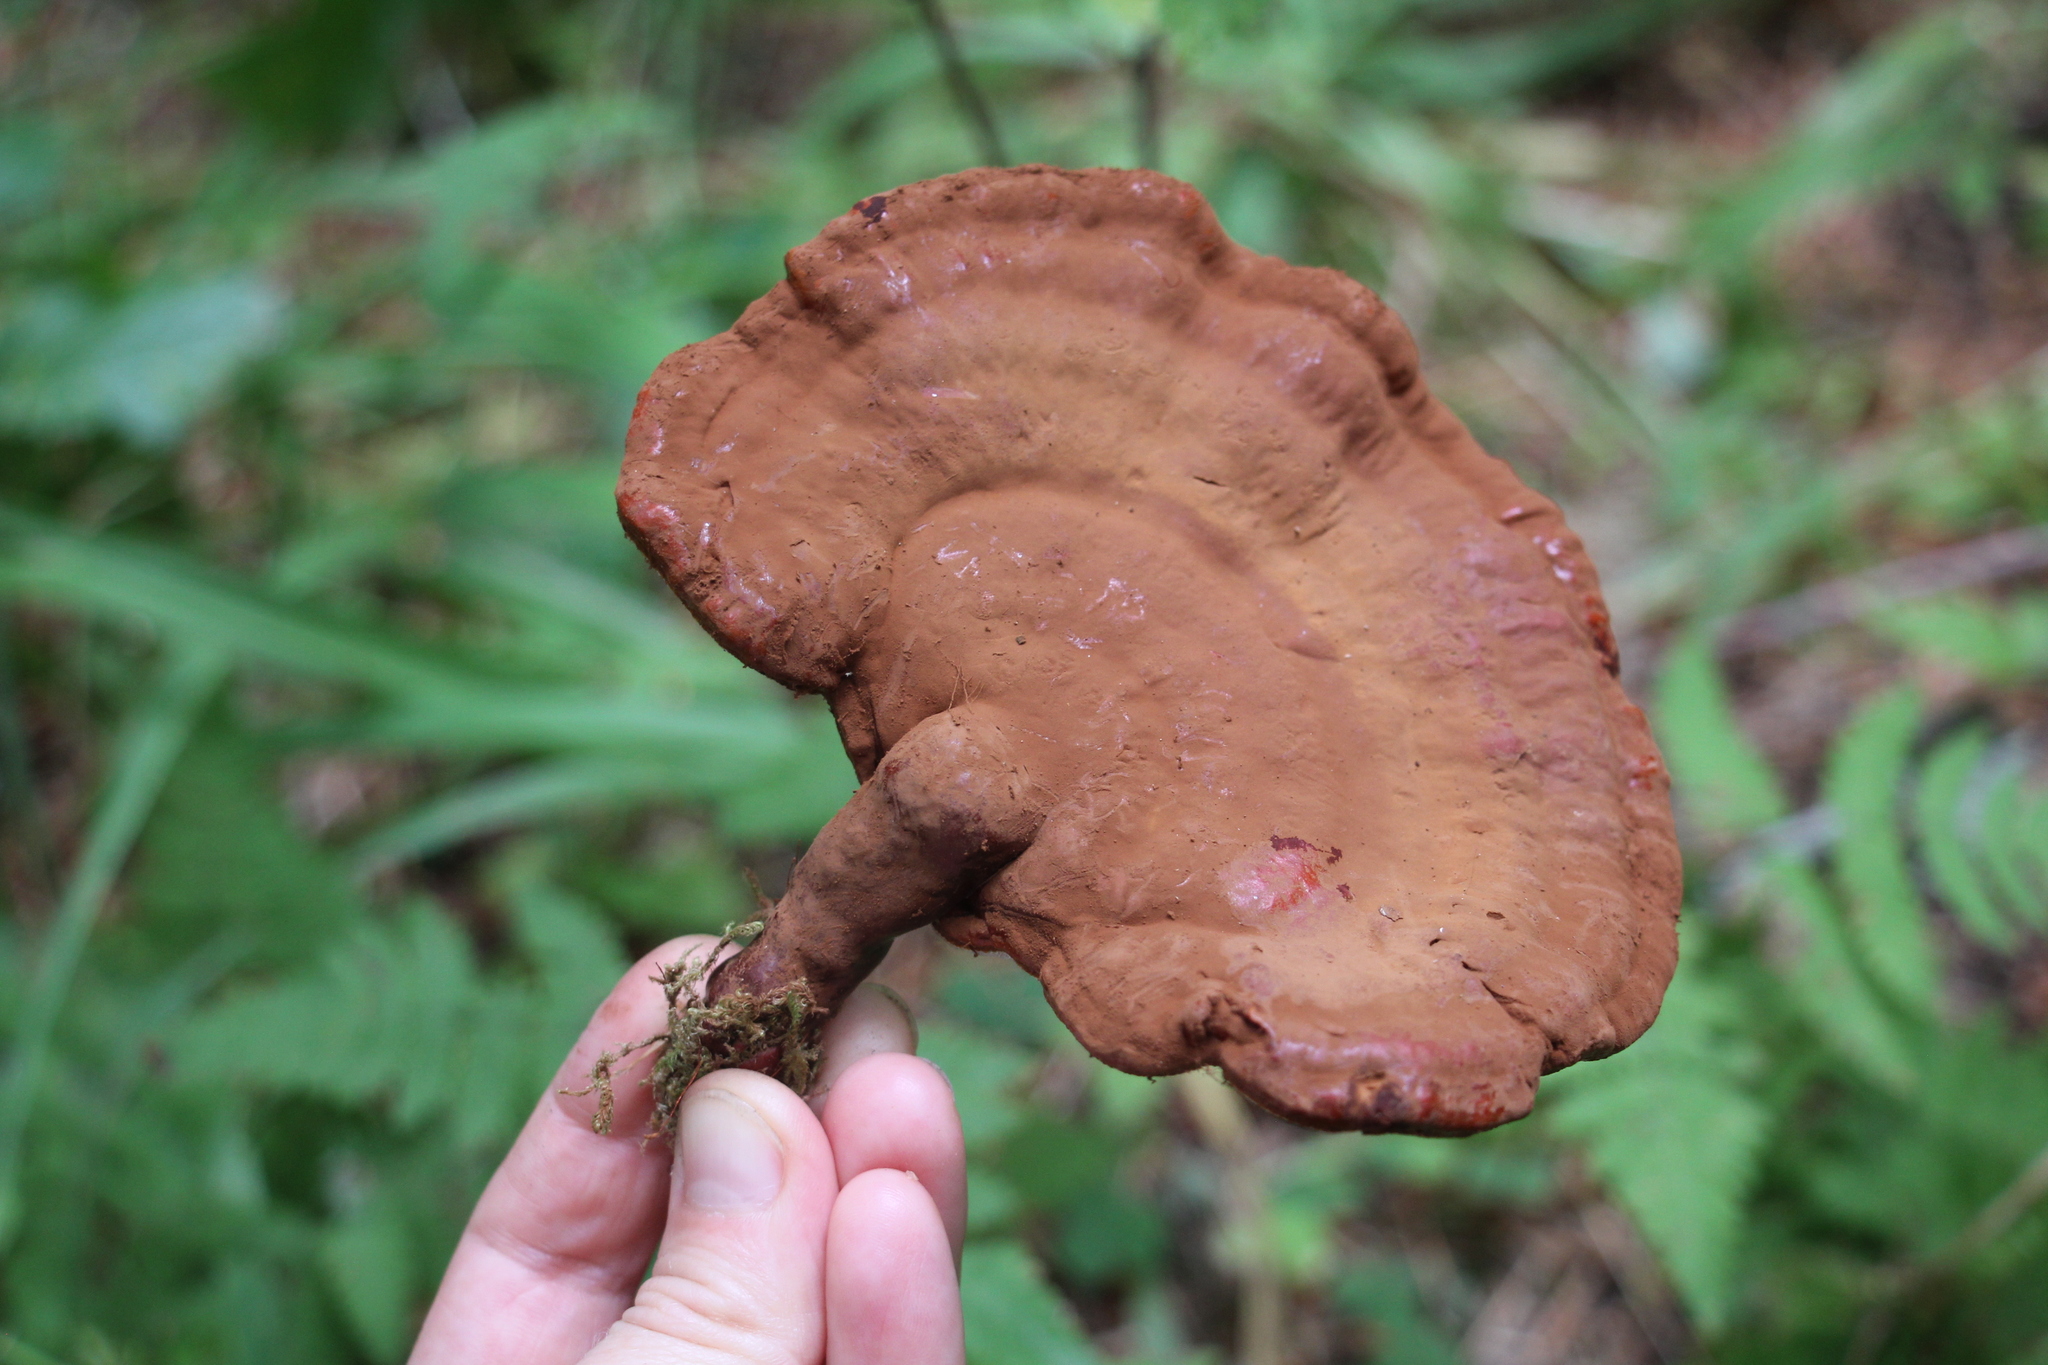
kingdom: Fungi
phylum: Basidiomycota
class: Agaricomycetes
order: Polyporales
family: Polyporaceae
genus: Ganoderma
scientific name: Ganoderma lucidum
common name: Lacquered bracket
